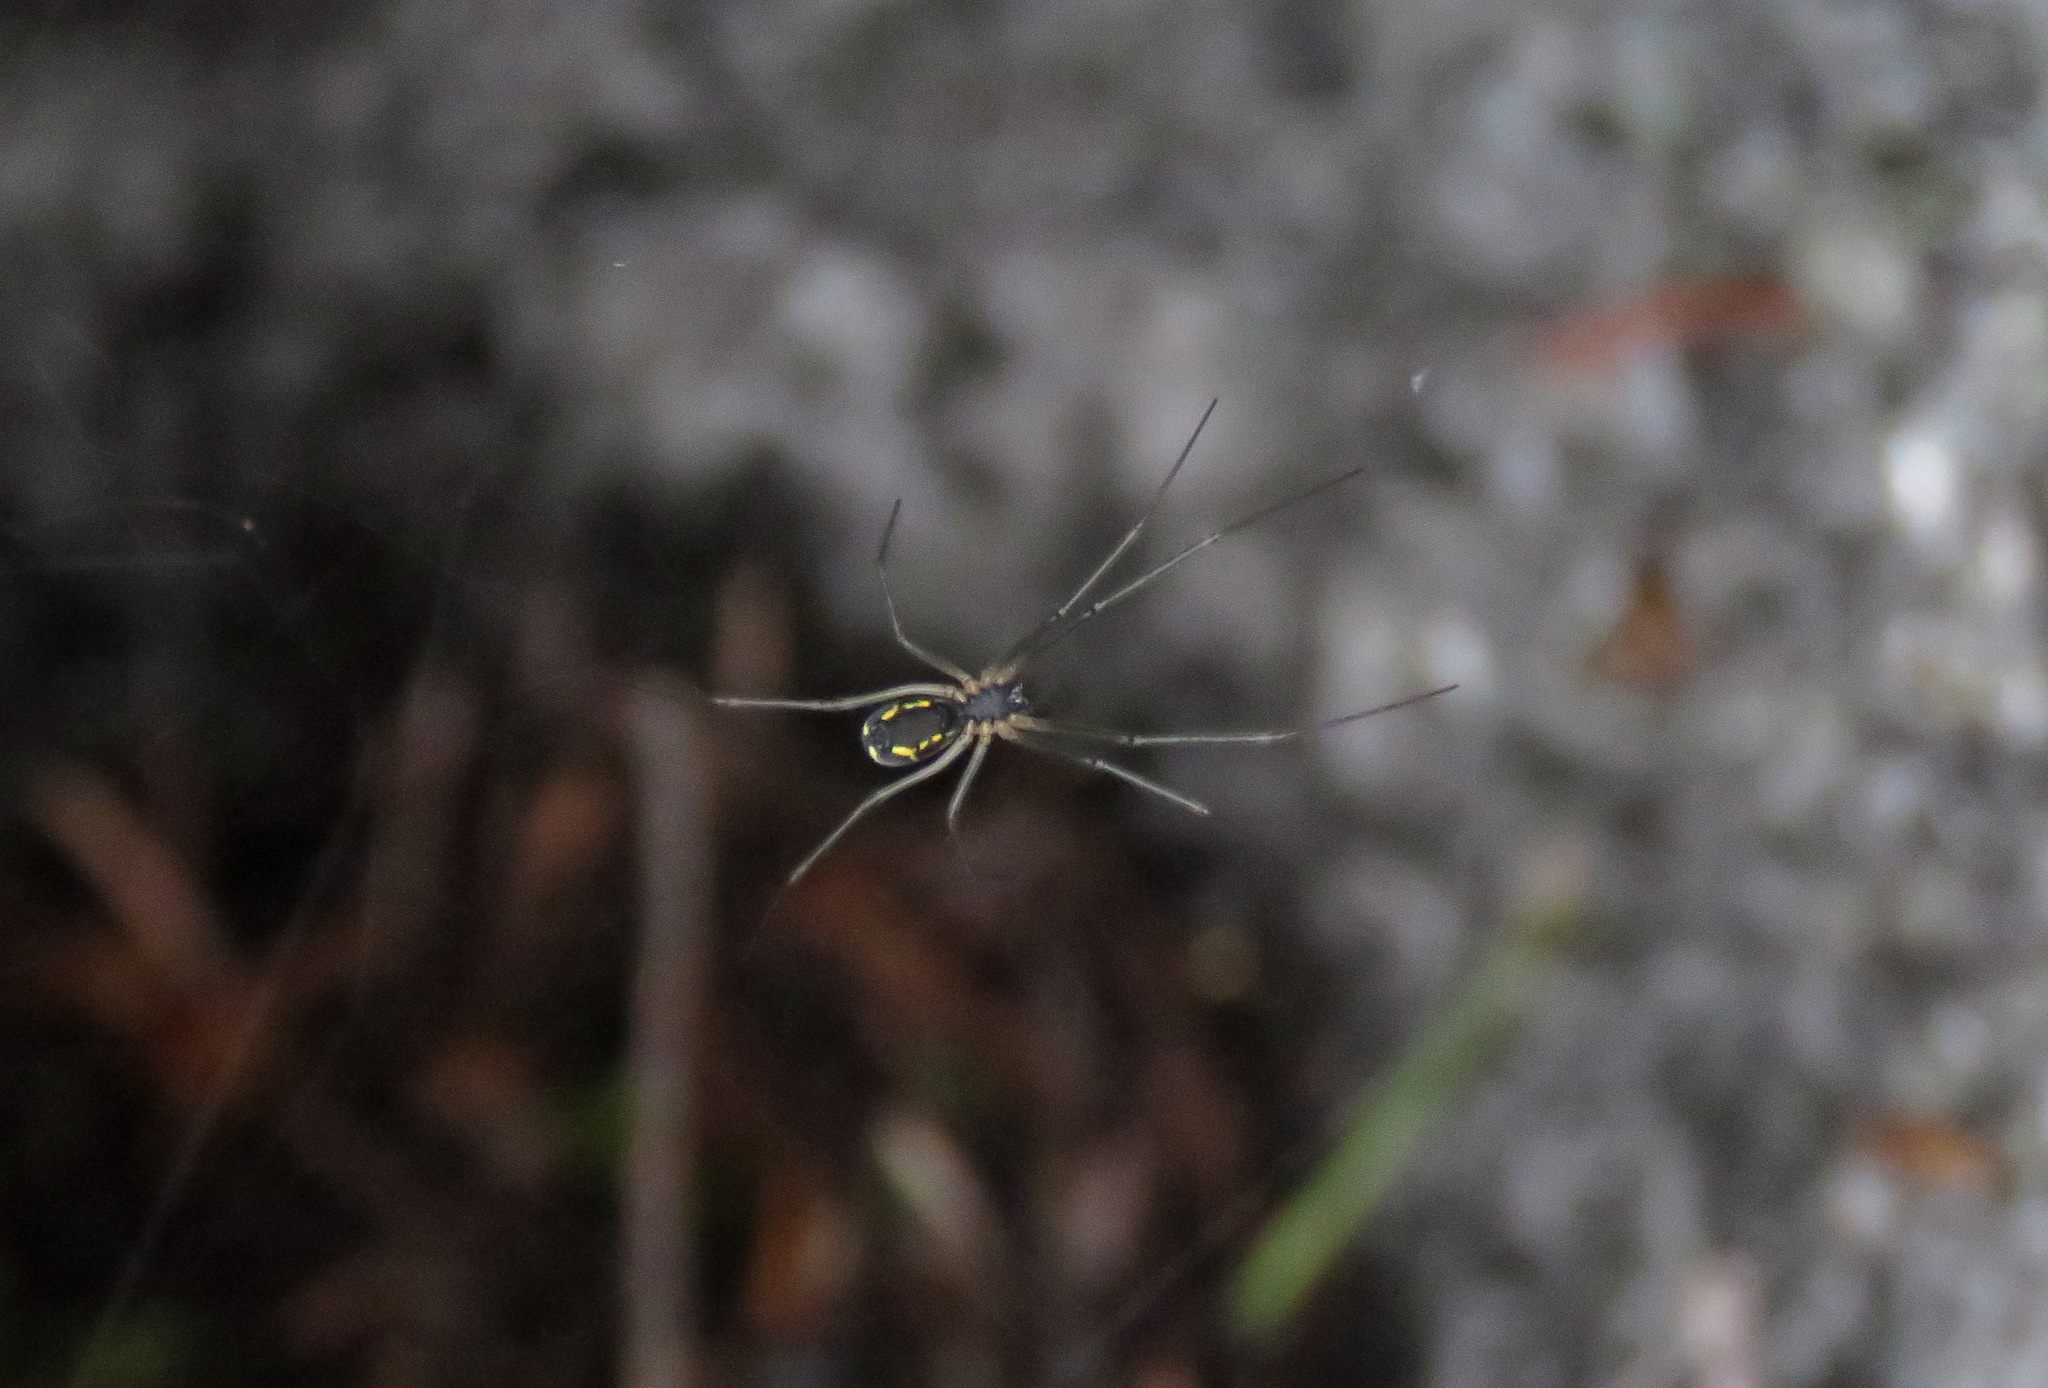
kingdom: Animalia
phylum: Arthropoda
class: Arachnida
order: Araneae
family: Linyphiidae
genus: Neriene
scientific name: Neriene radiata
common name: Filmy dome spider
